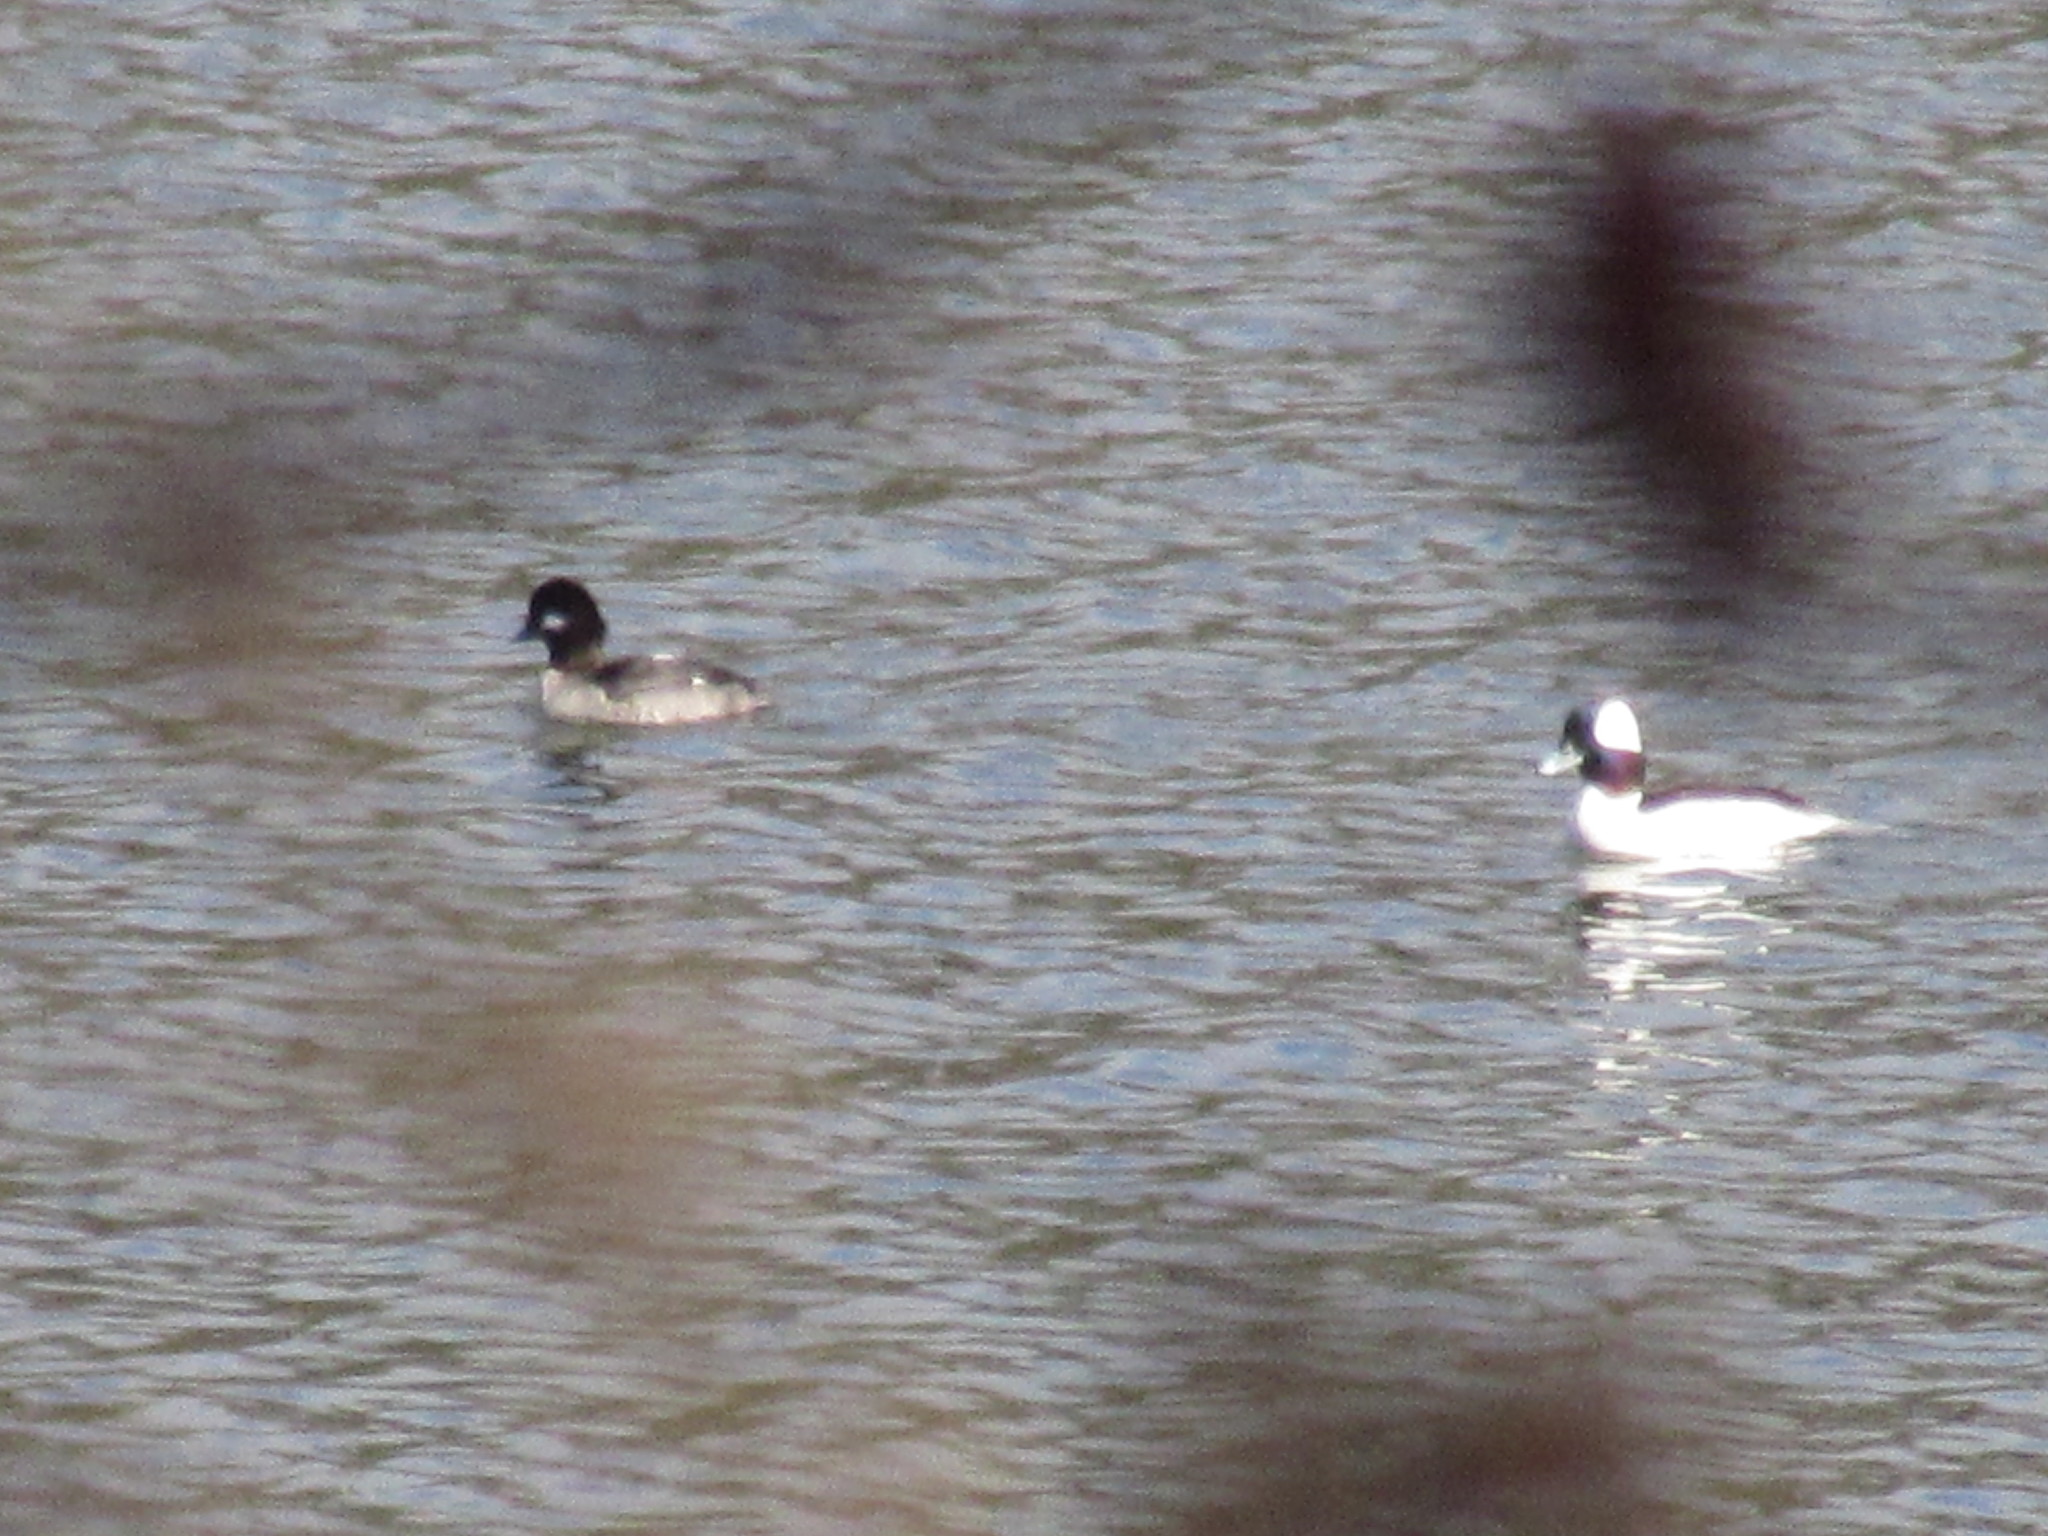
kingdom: Animalia
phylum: Chordata
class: Aves
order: Anseriformes
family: Anatidae
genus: Bucephala
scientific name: Bucephala albeola
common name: Bufflehead
